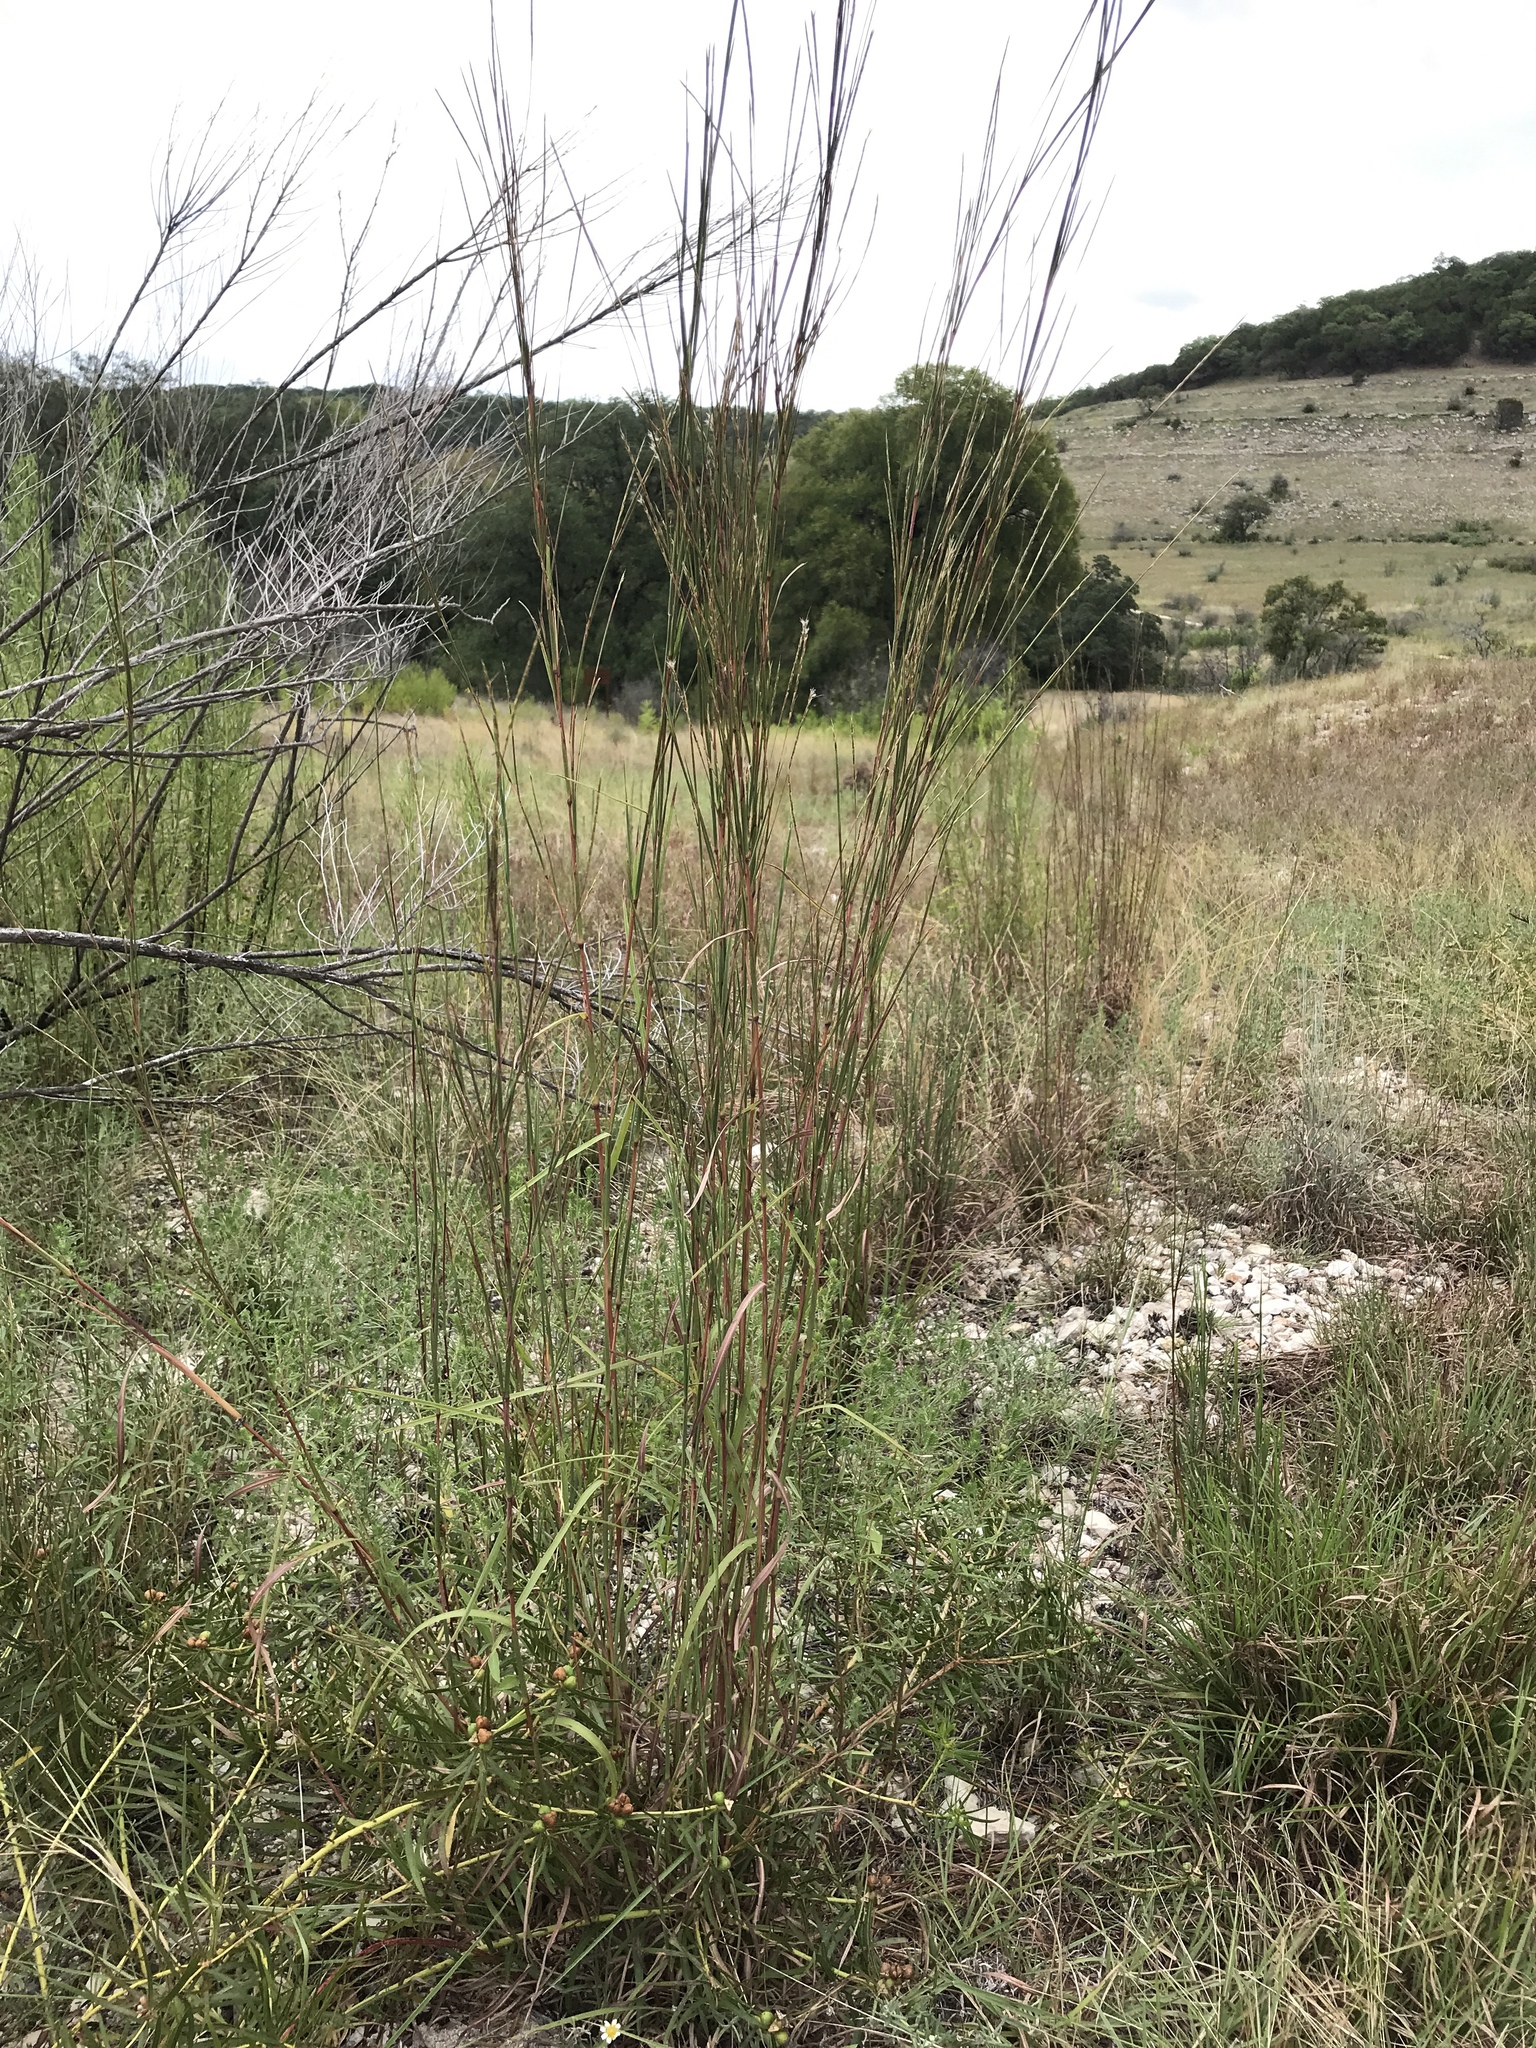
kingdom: Plantae
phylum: Tracheophyta
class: Liliopsida
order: Poales
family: Poaceae
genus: Schizachyrium
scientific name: Schizachyrium scoparium
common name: Little bluestem
